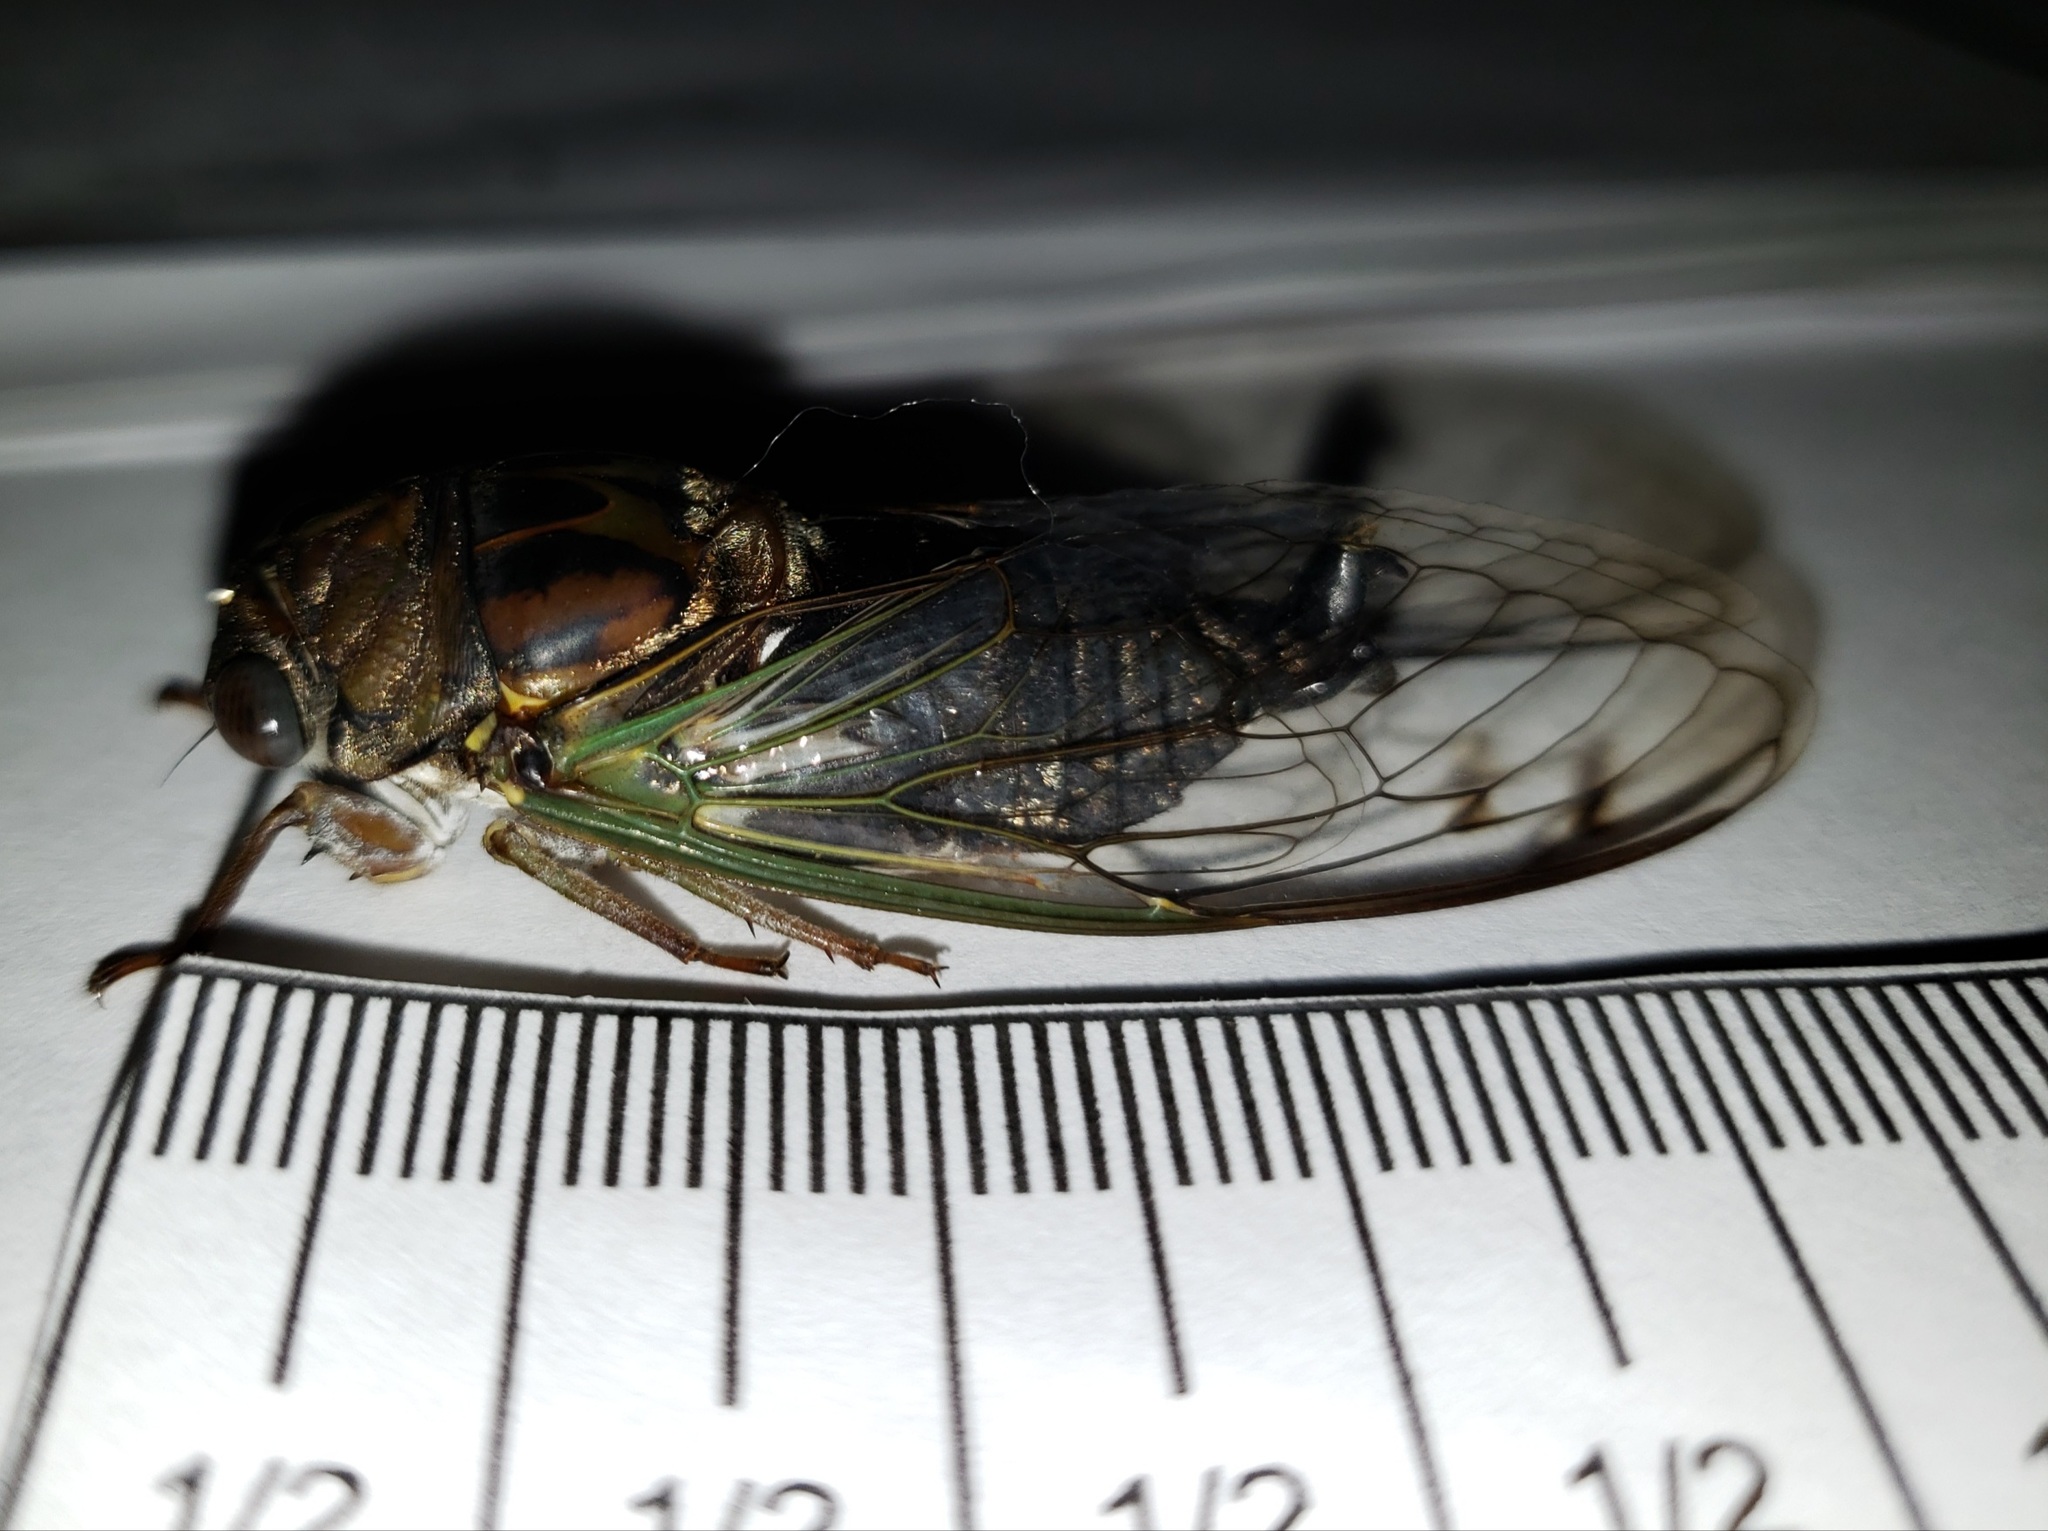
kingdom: Animalia
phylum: Arthropoda
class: Insecta
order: Hemiptera
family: Cicadidae
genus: Neotibicen
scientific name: Neotibicen similaris
